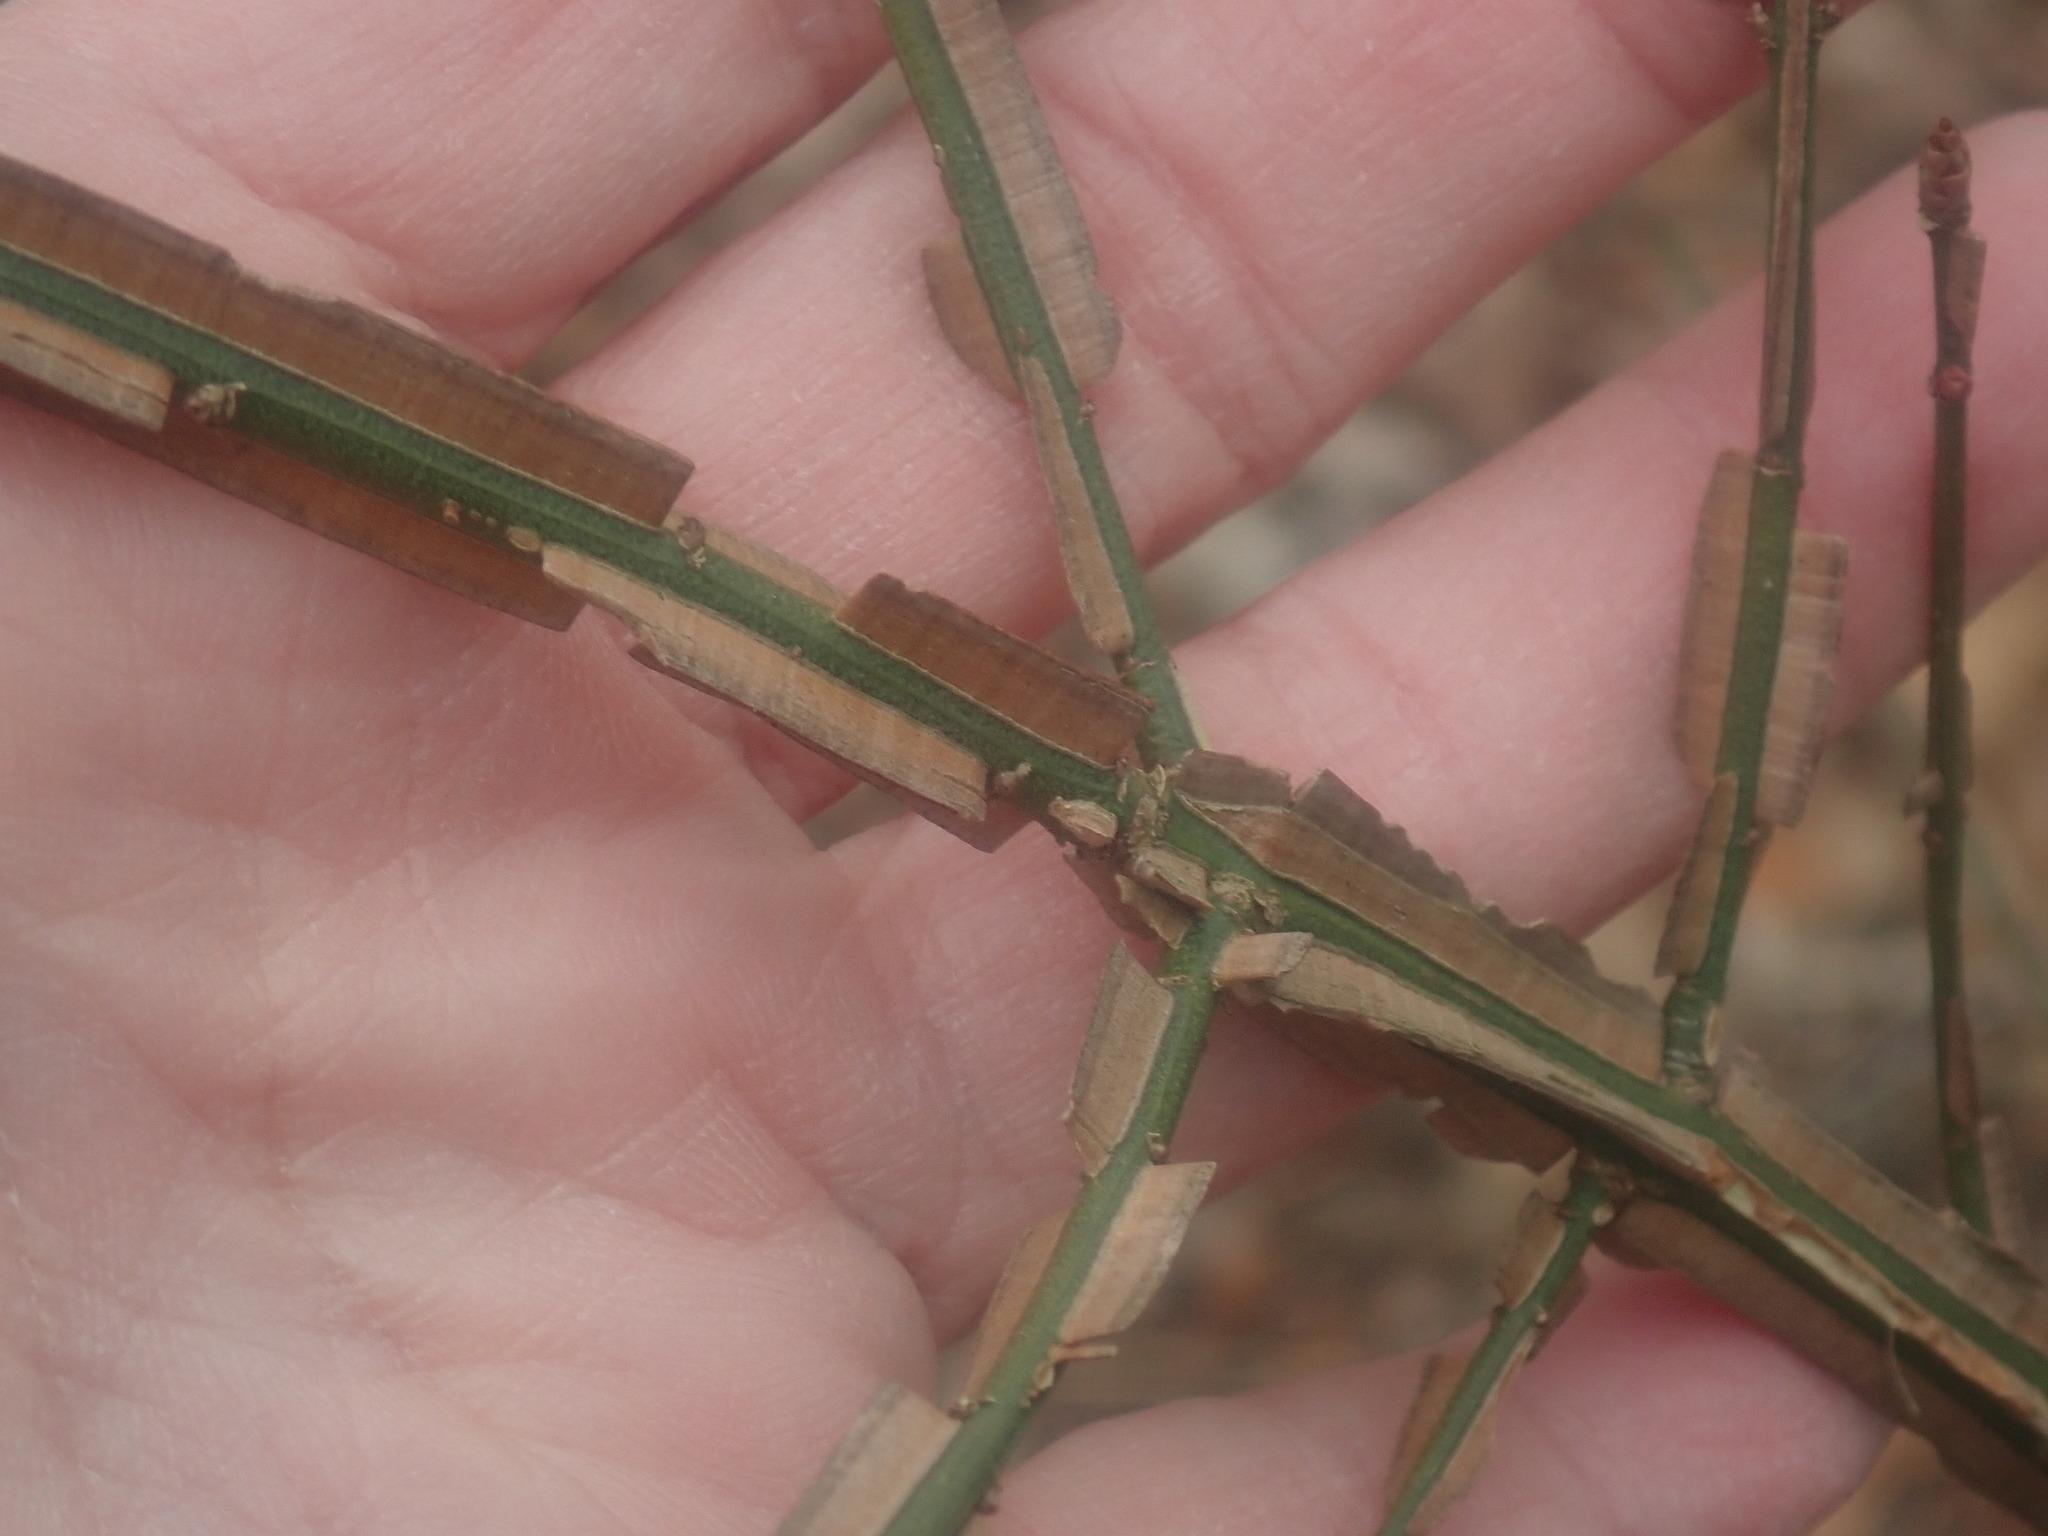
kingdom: Plantae
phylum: Tracheophyta
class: Magnoliopsida
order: Celastrales
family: Celastraceae
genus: Euonymus
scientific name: Euonymus alatus
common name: Winged euonymus
